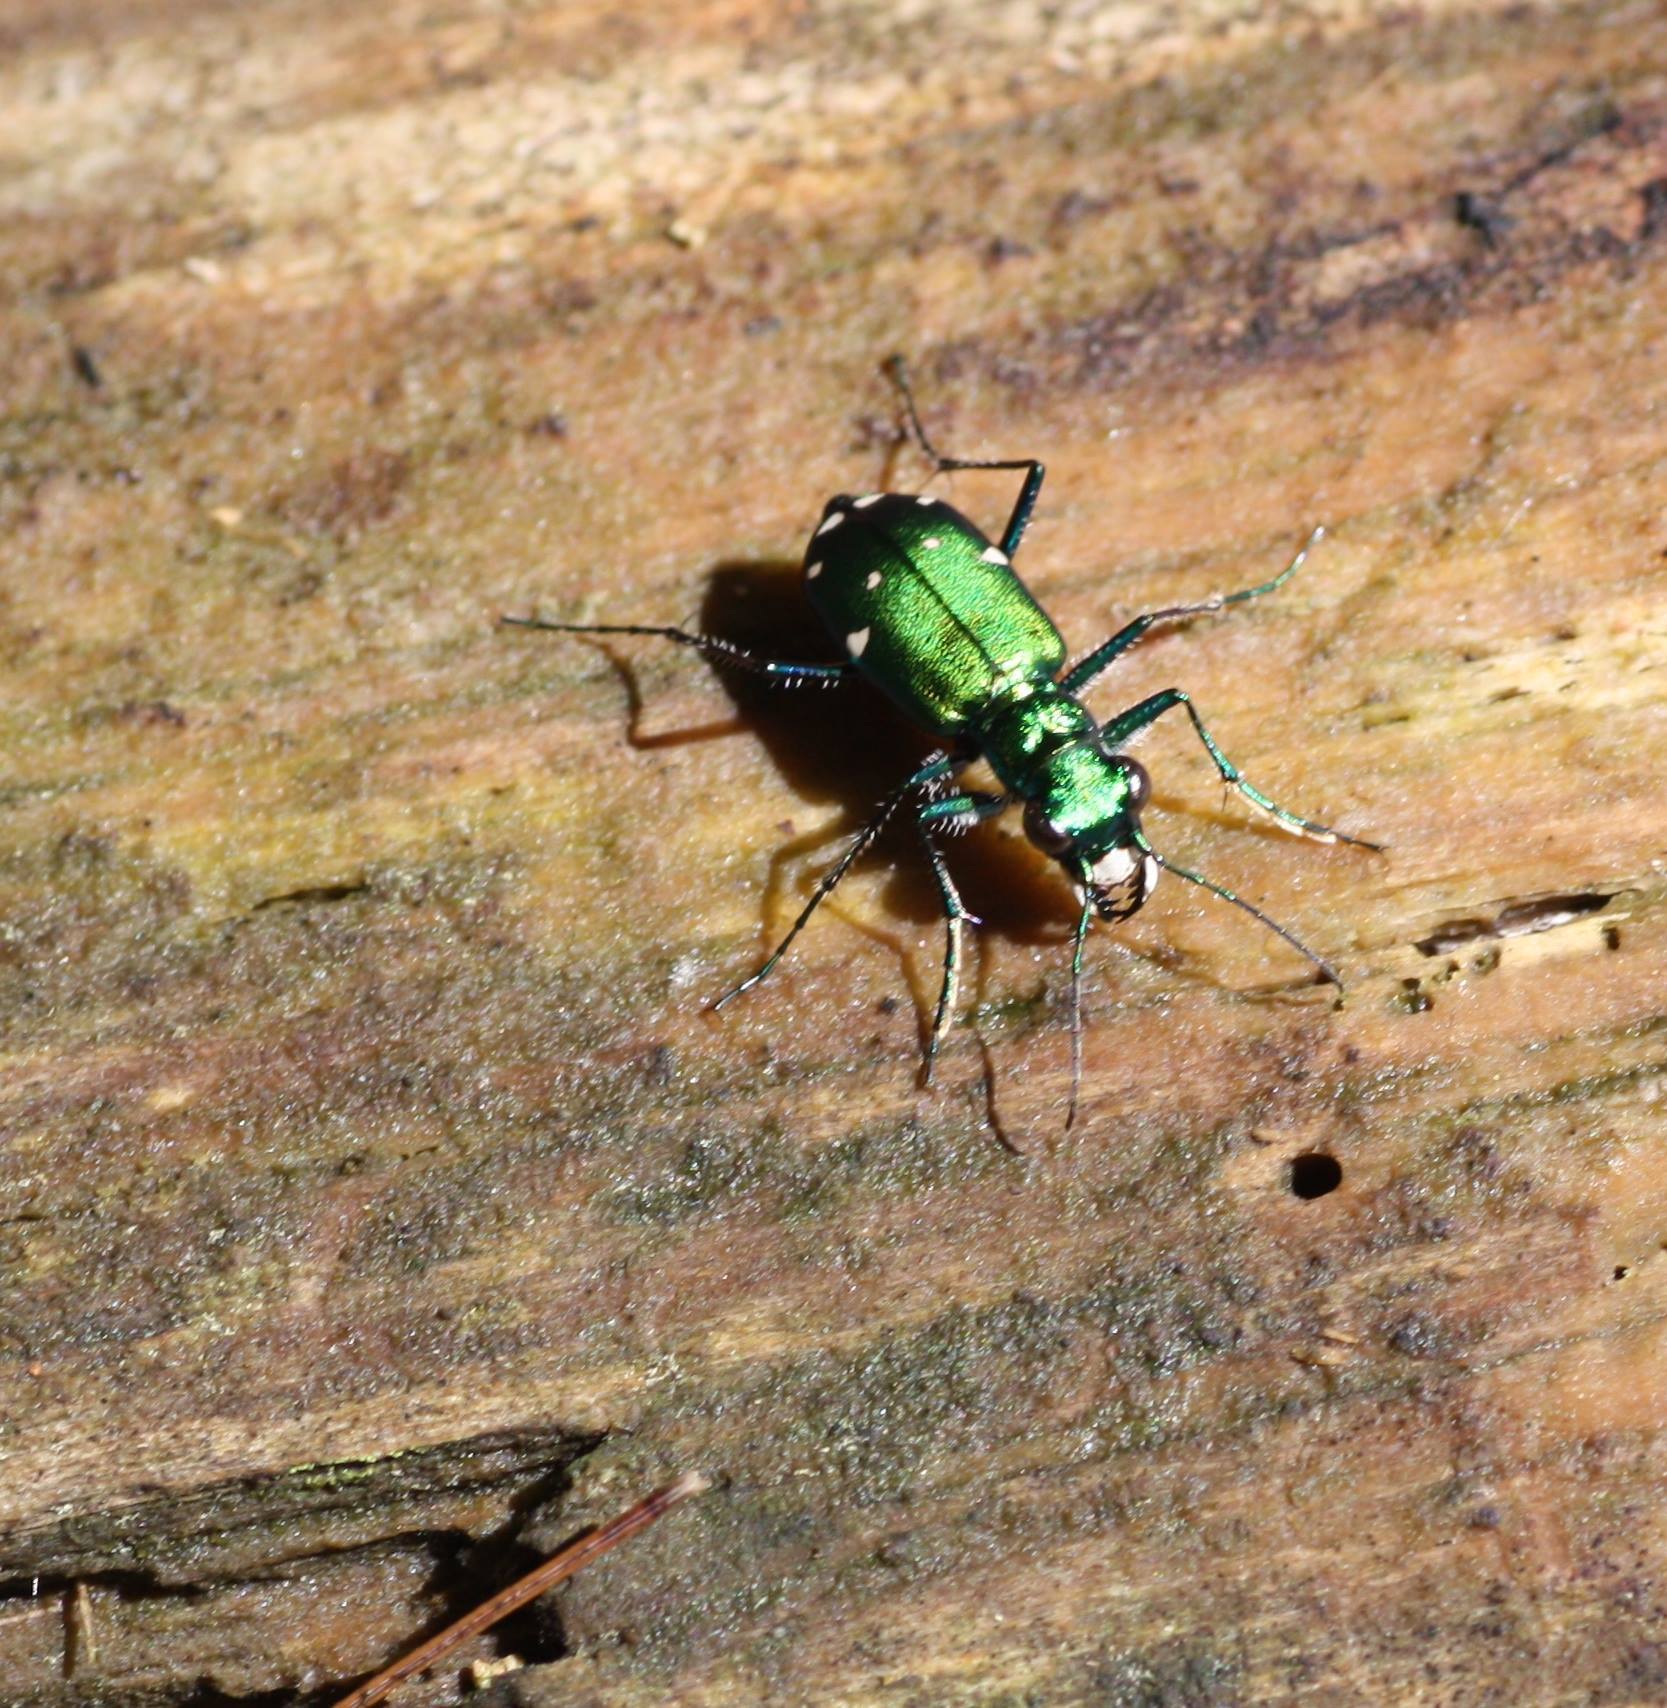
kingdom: Animalia
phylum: Arthropoda
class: Insecta
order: Coleoptera
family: Carabidae
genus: Cicindela
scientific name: Cicindela sexguttata
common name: Six-spotted tiger beetle
